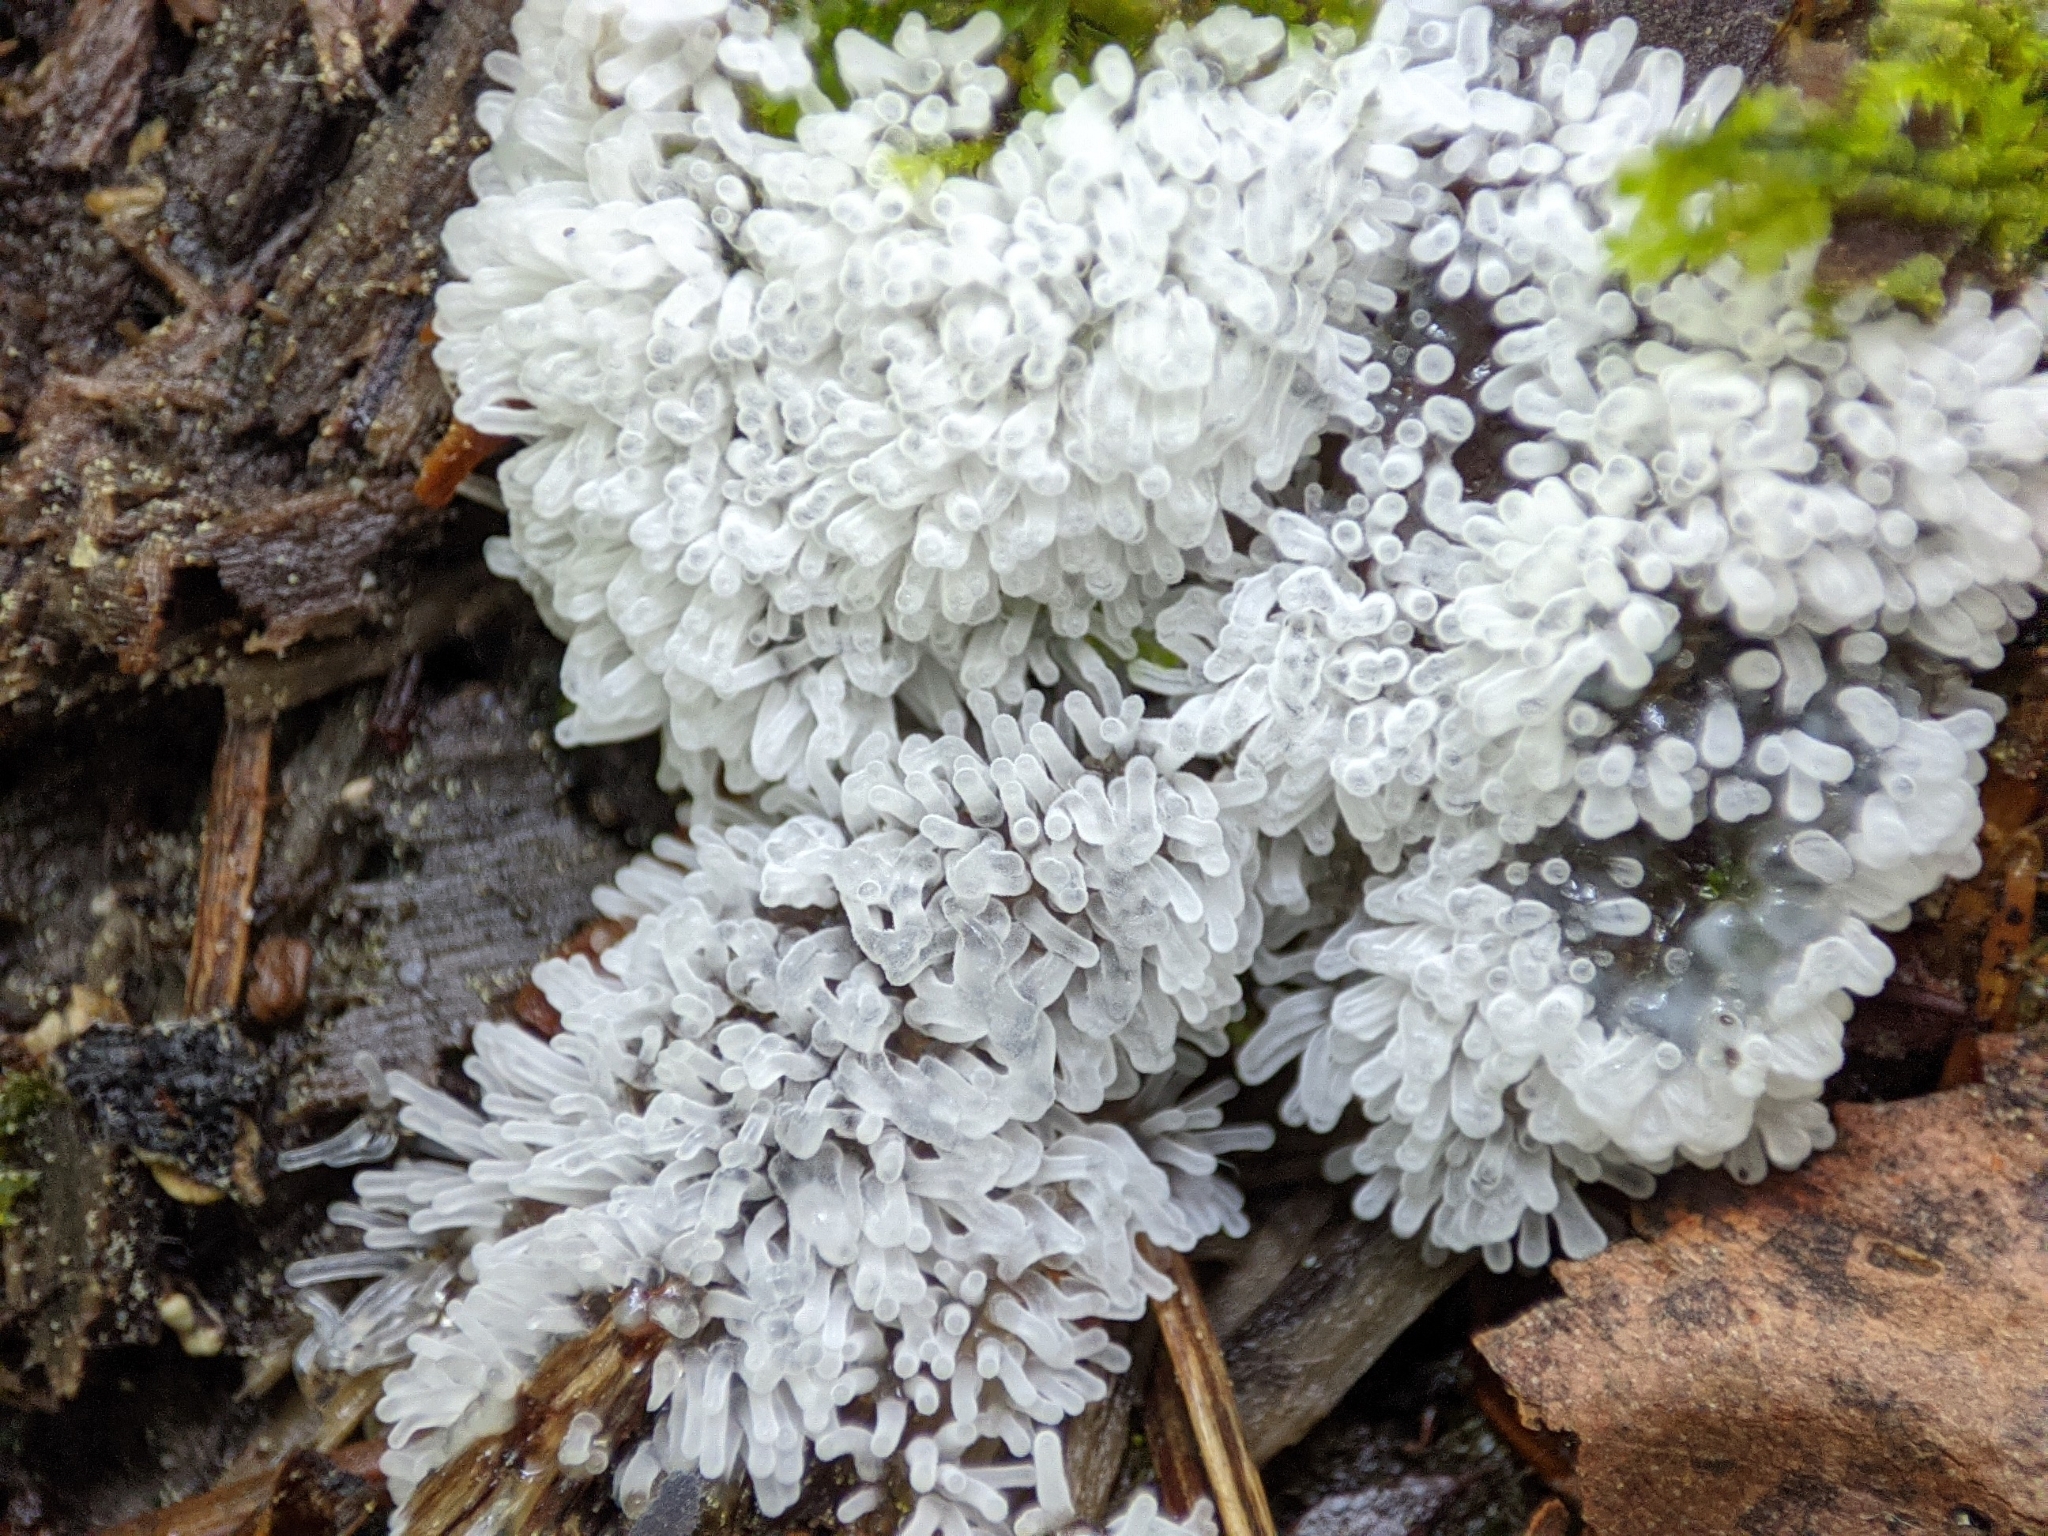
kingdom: Protozoa
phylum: Mycetozoa
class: Protosteliomycetes
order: Ceratiomyxales
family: Ceratiomyxaceae
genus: Ceratiomyxa
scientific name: Ceratiomyxa fruticulosa
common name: Honeycomb coral slime mold
